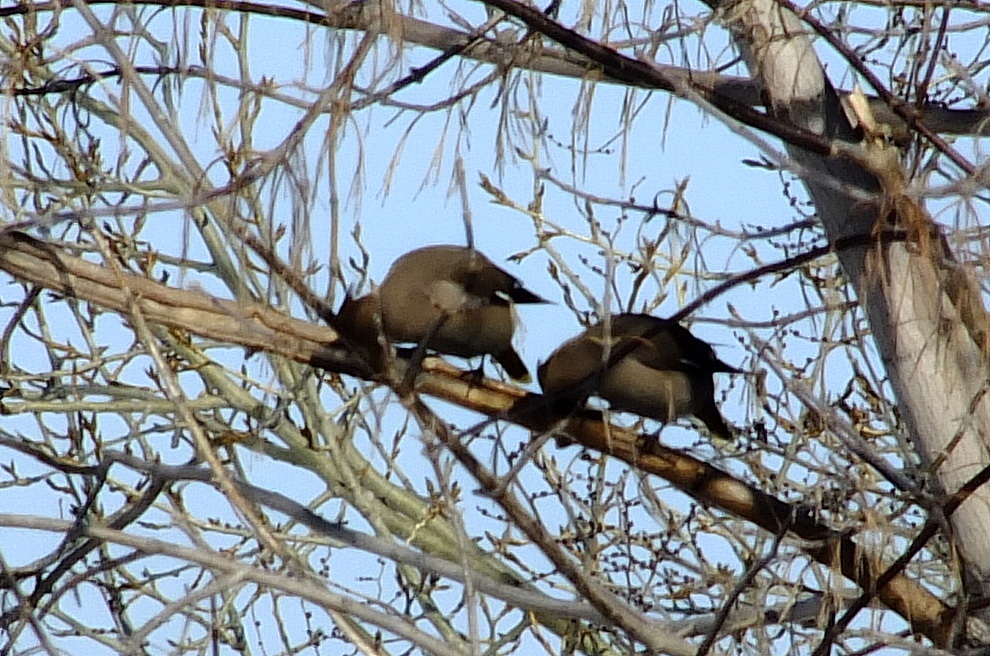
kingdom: Animalia
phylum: Chordata
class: Aves
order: Passeriformes
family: Bombycillidae
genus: Bombycilla
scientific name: Bombycilla garrulus
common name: Bohemian waxwing
